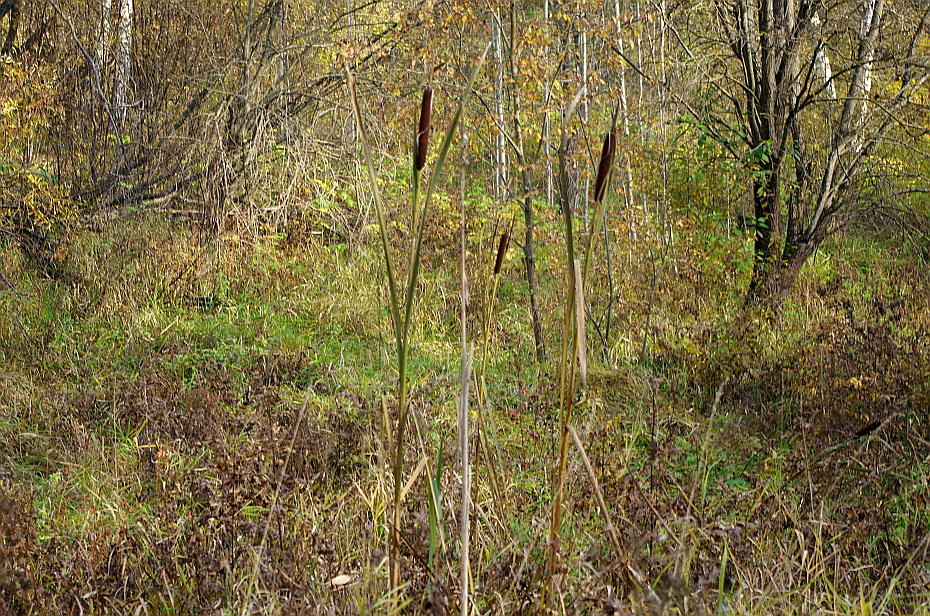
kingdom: Plantae
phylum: Tracheophyta
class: Liliopsida
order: Poales
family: Typhaceae
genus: Typha
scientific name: Typha latifolia
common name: Broadleaf cattail
